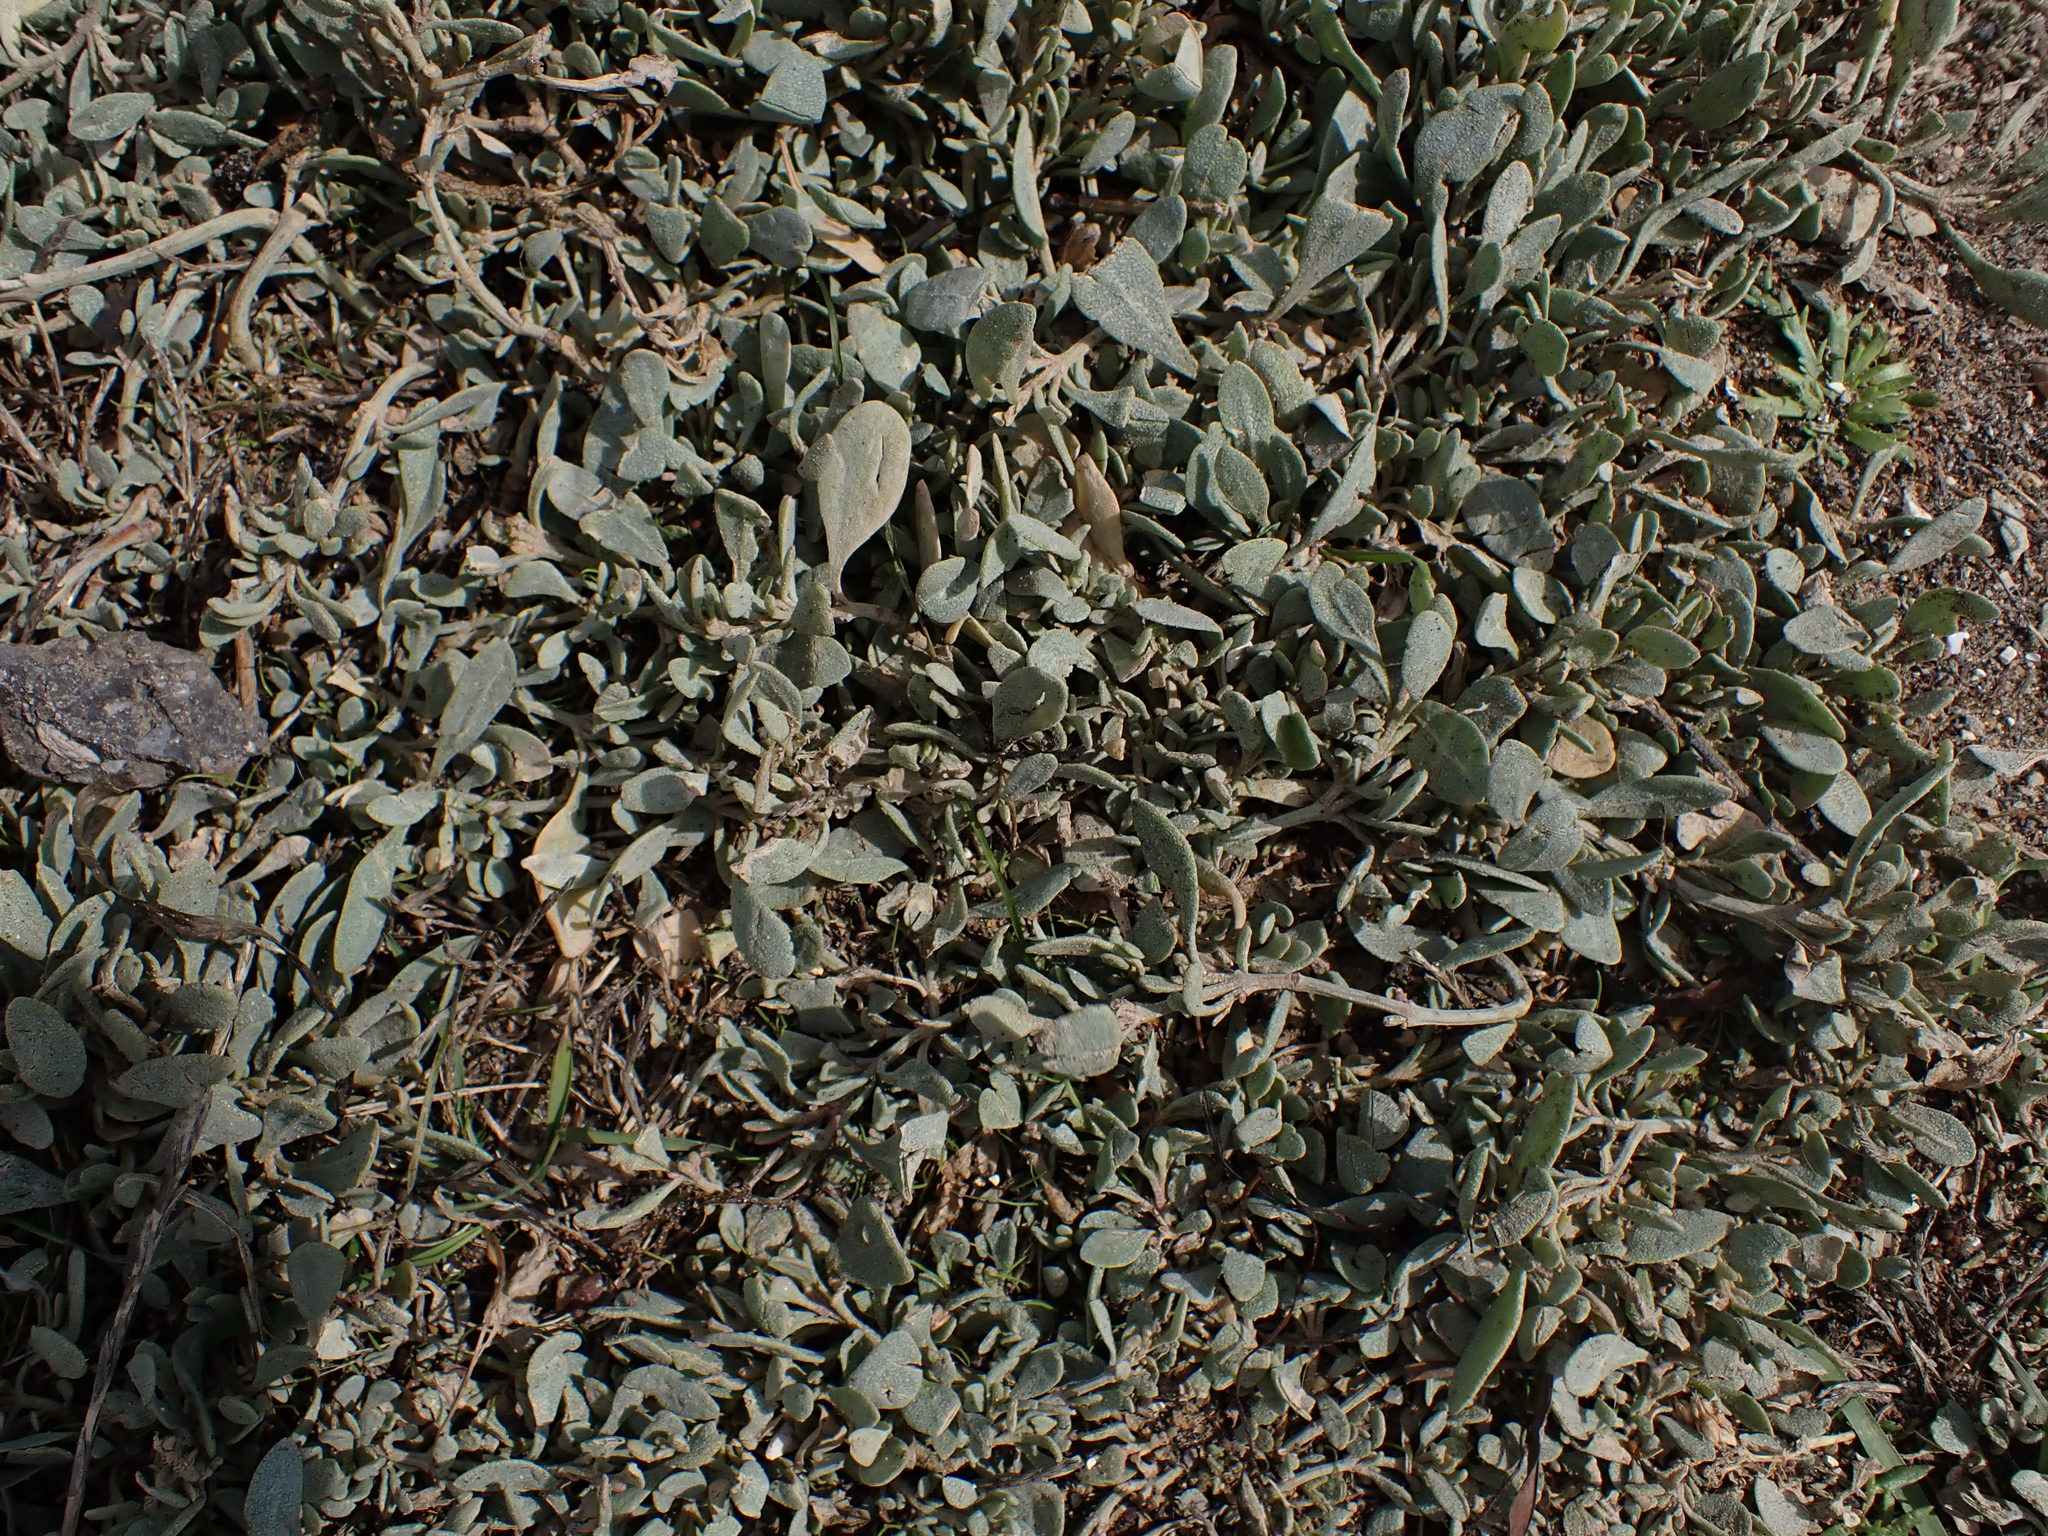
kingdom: Plantae
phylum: Tracheophyta
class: Magnoliopsida
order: Caryophyllales
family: Amaranthaceae
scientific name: Amaranthaceae
